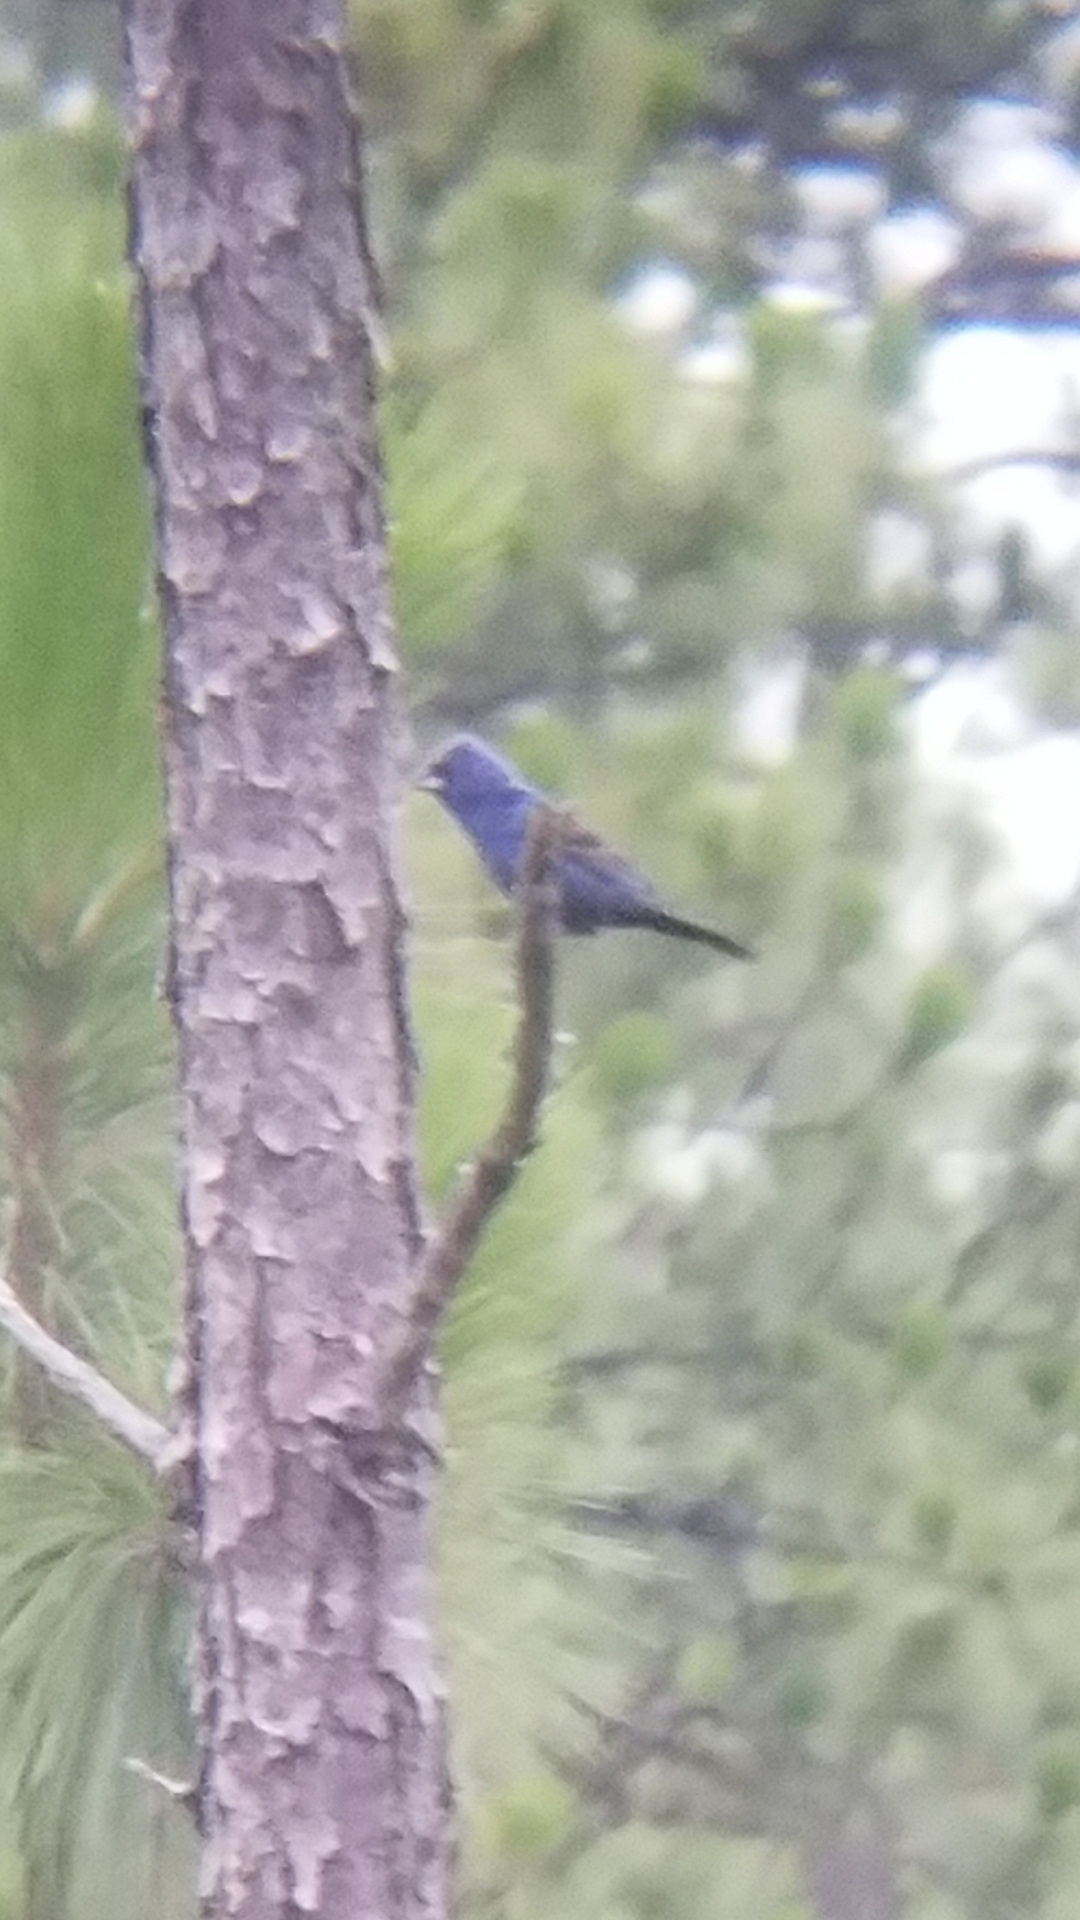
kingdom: Animalia
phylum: Chordata
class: Aves
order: Passeriformes
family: Cardinalidae
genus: Passerina
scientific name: Passerina caerulea
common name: Blue grosbeak
